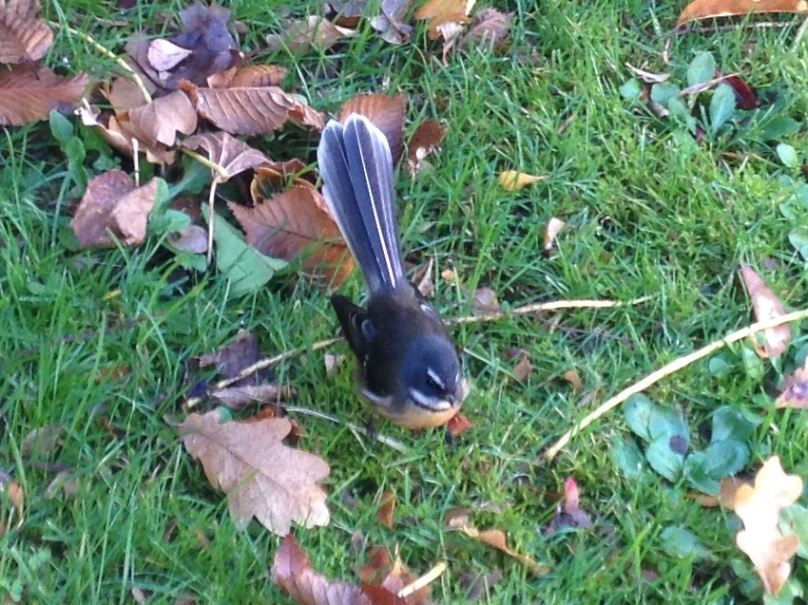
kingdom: Animalia
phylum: Chordata
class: Aves
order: Passeriformes
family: Rhipiduridae
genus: Rhipidura
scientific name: Rhipidura fuliginosa
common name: New zealand fantail
